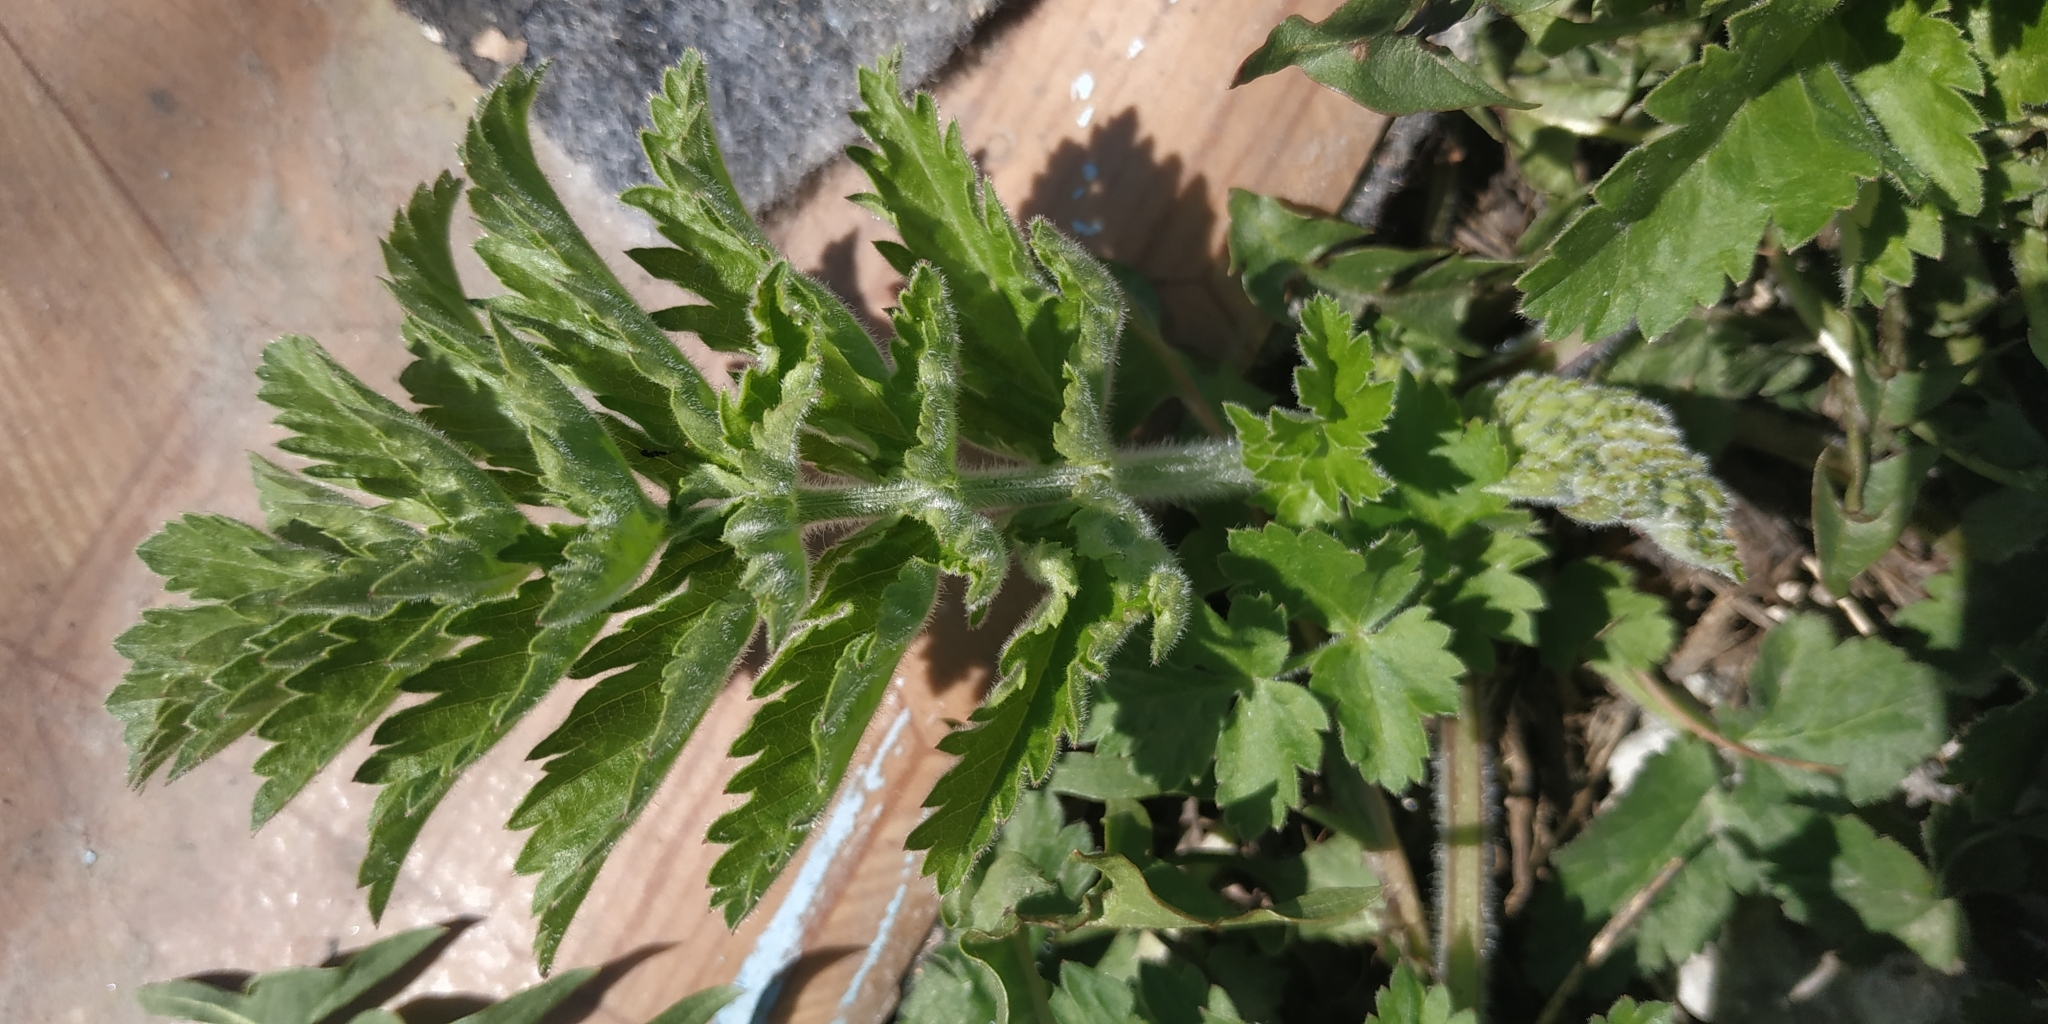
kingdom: Plantae
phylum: Tracheophyta
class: Magnoliopsida
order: Apiales
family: Apiaceae
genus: Pastinaca
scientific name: Pastinaca sativa
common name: Wild parsnip
